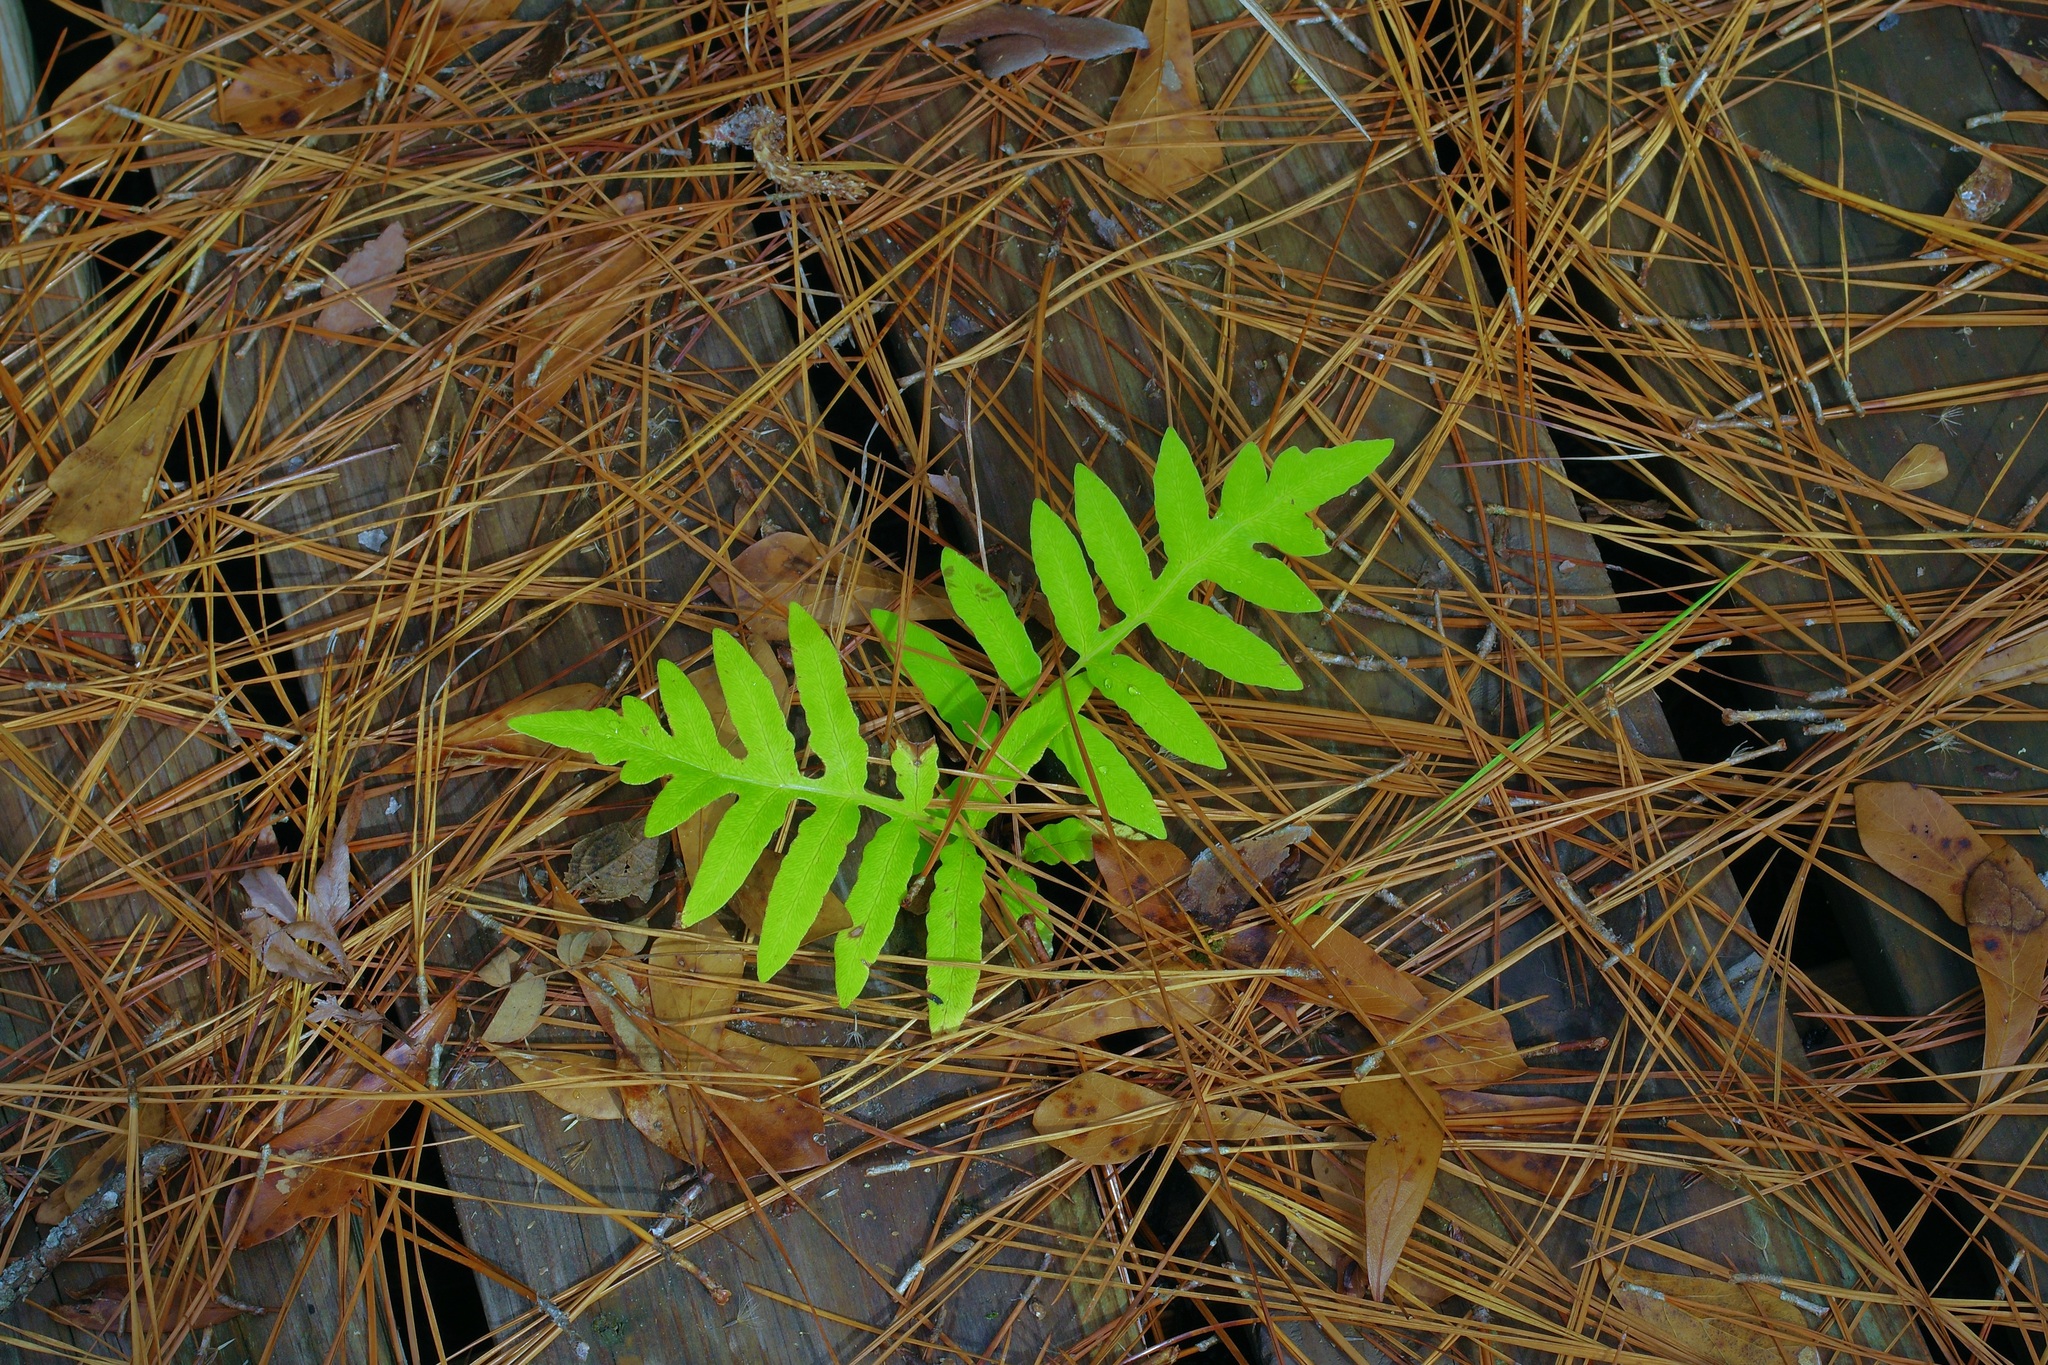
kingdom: Plantae
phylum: Tracheophyta
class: Polypodiopsida
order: Polypodiales
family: Onocleaceae
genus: Onoclea
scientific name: Onoclea sensibilis
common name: Sensitive fern
